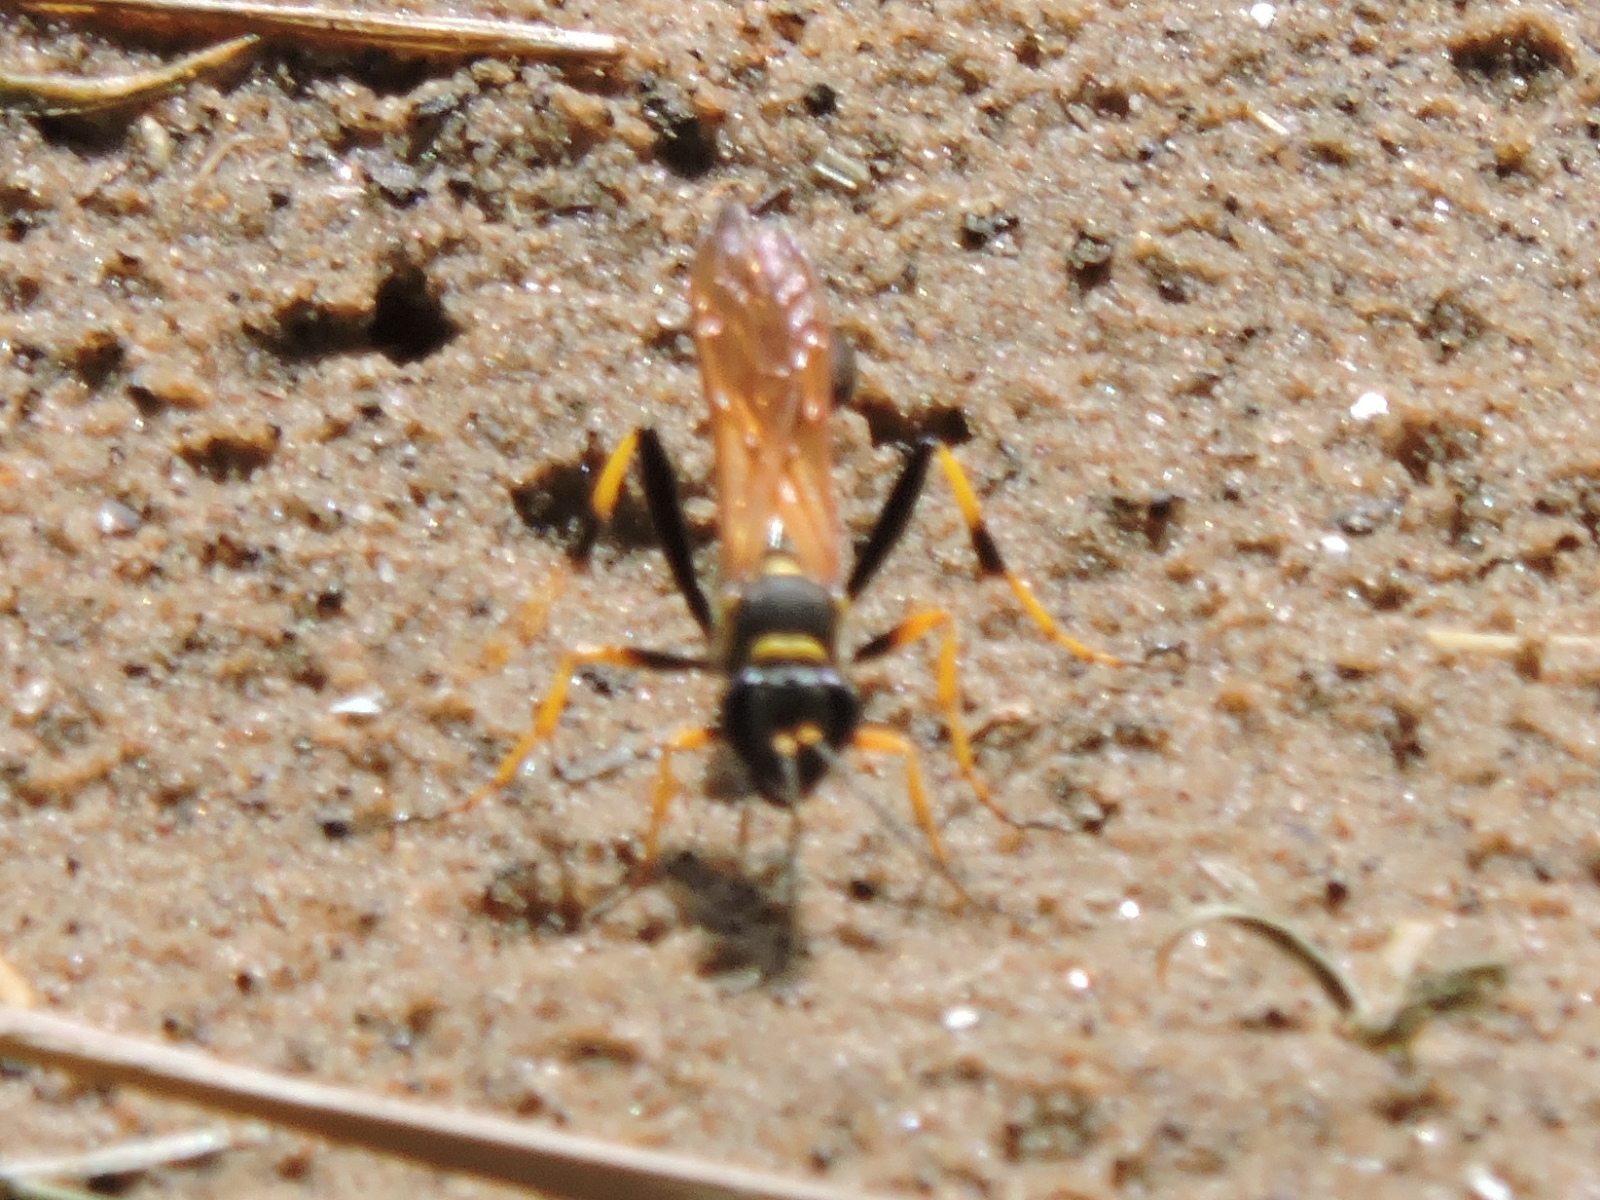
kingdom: Animalia
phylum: Arthropoda
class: Insecta
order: Hymenoptera
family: Sphecidae
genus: Sceliphron
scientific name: Sceliphron caementarium
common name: Mud dauber
